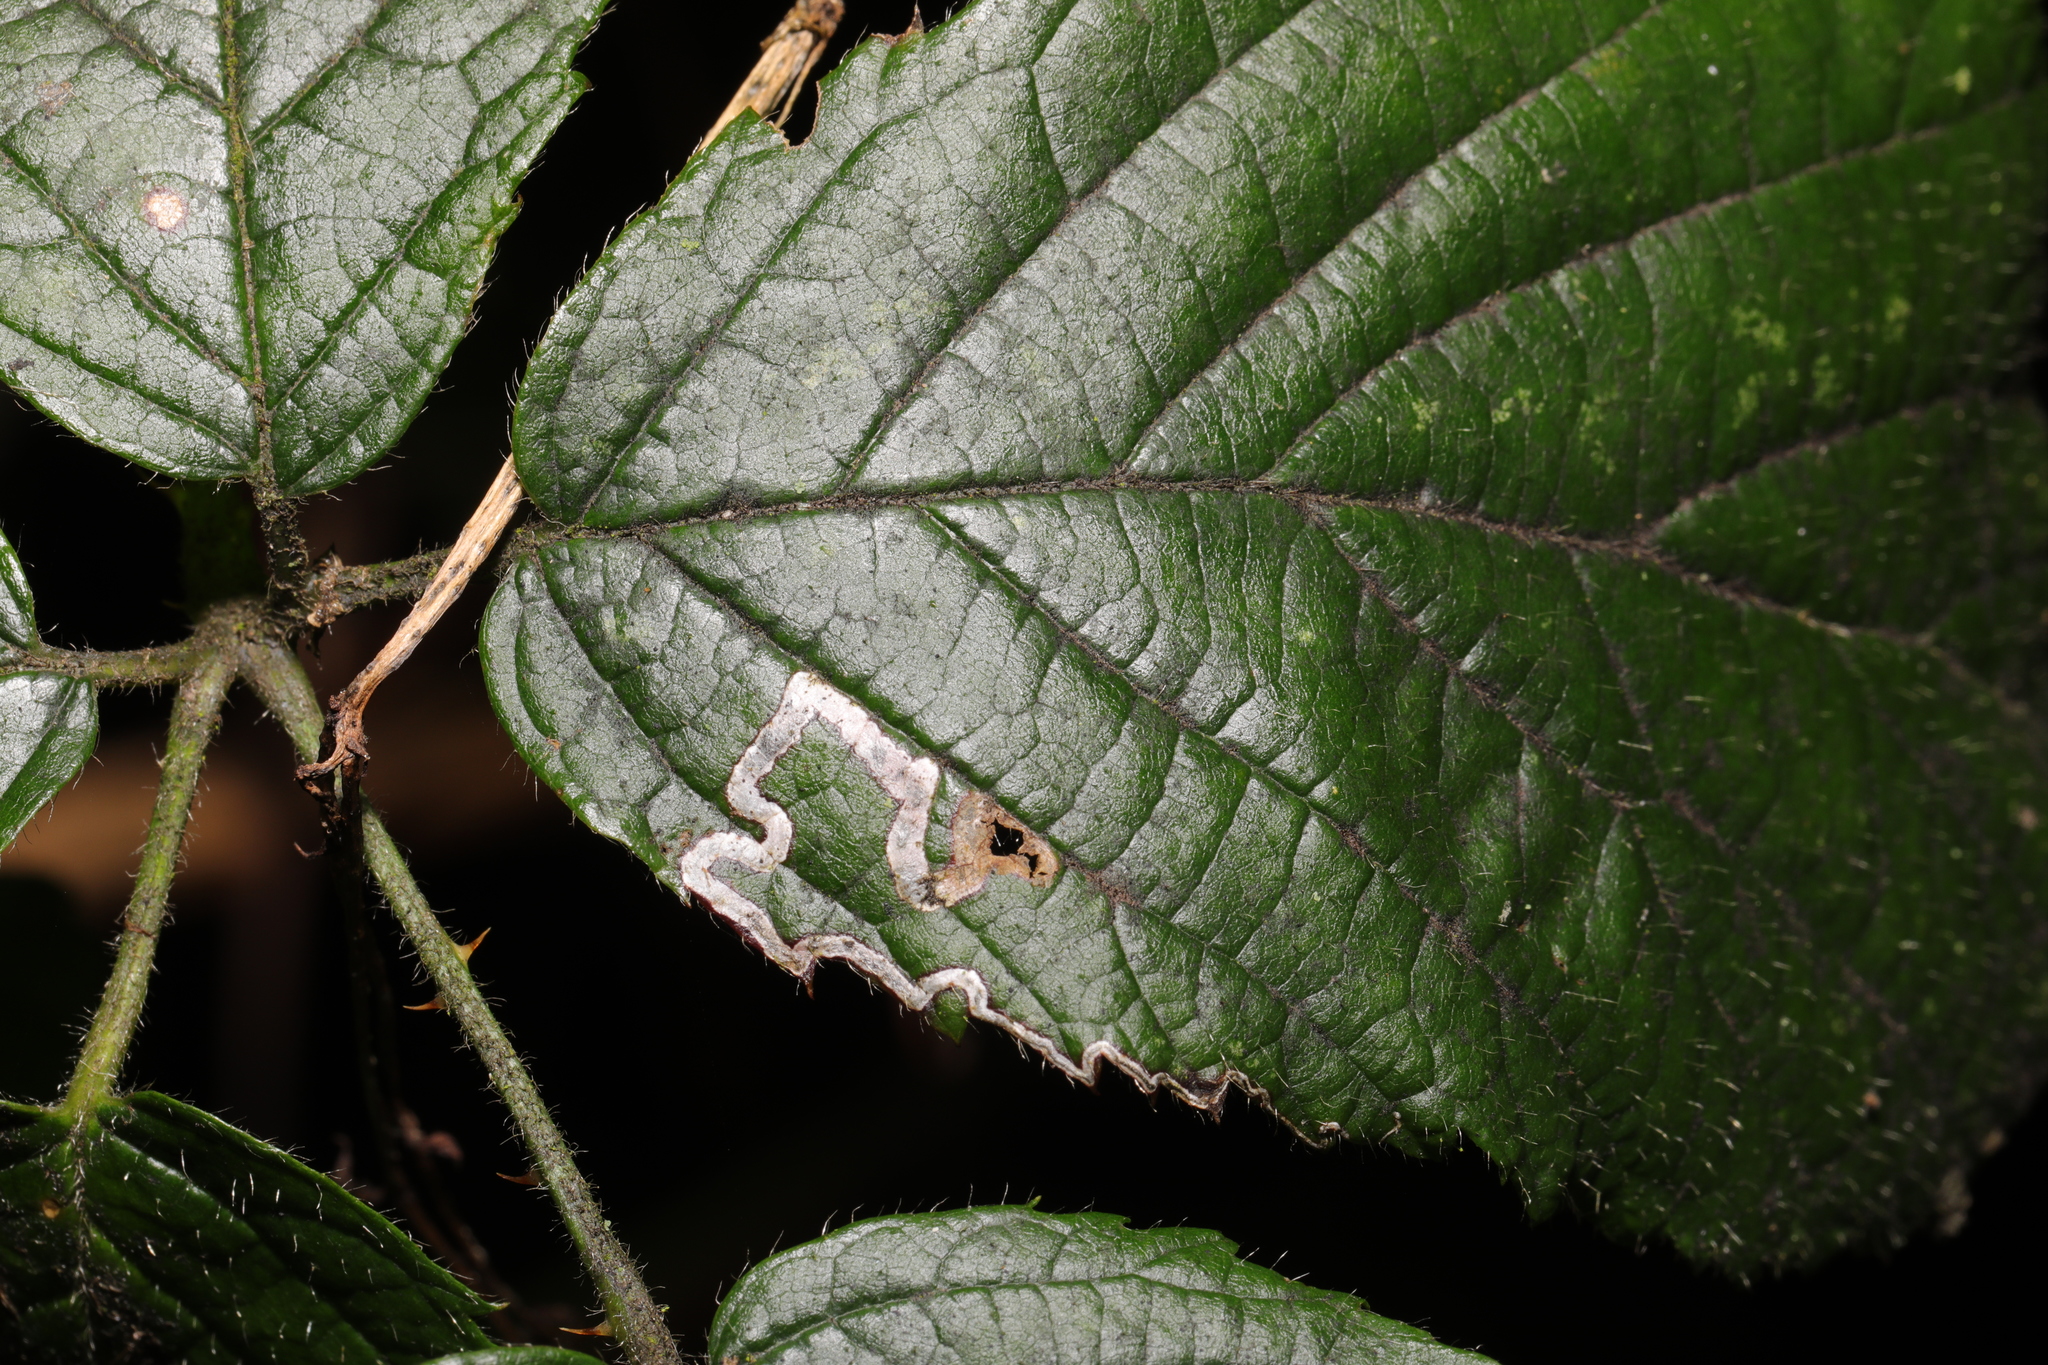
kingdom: Animalia
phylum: Arthropoda
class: Insecta
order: Lepidoptera
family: Nepticulidae
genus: Stigmella
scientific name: Stigmella aurella
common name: Golden pigmy
